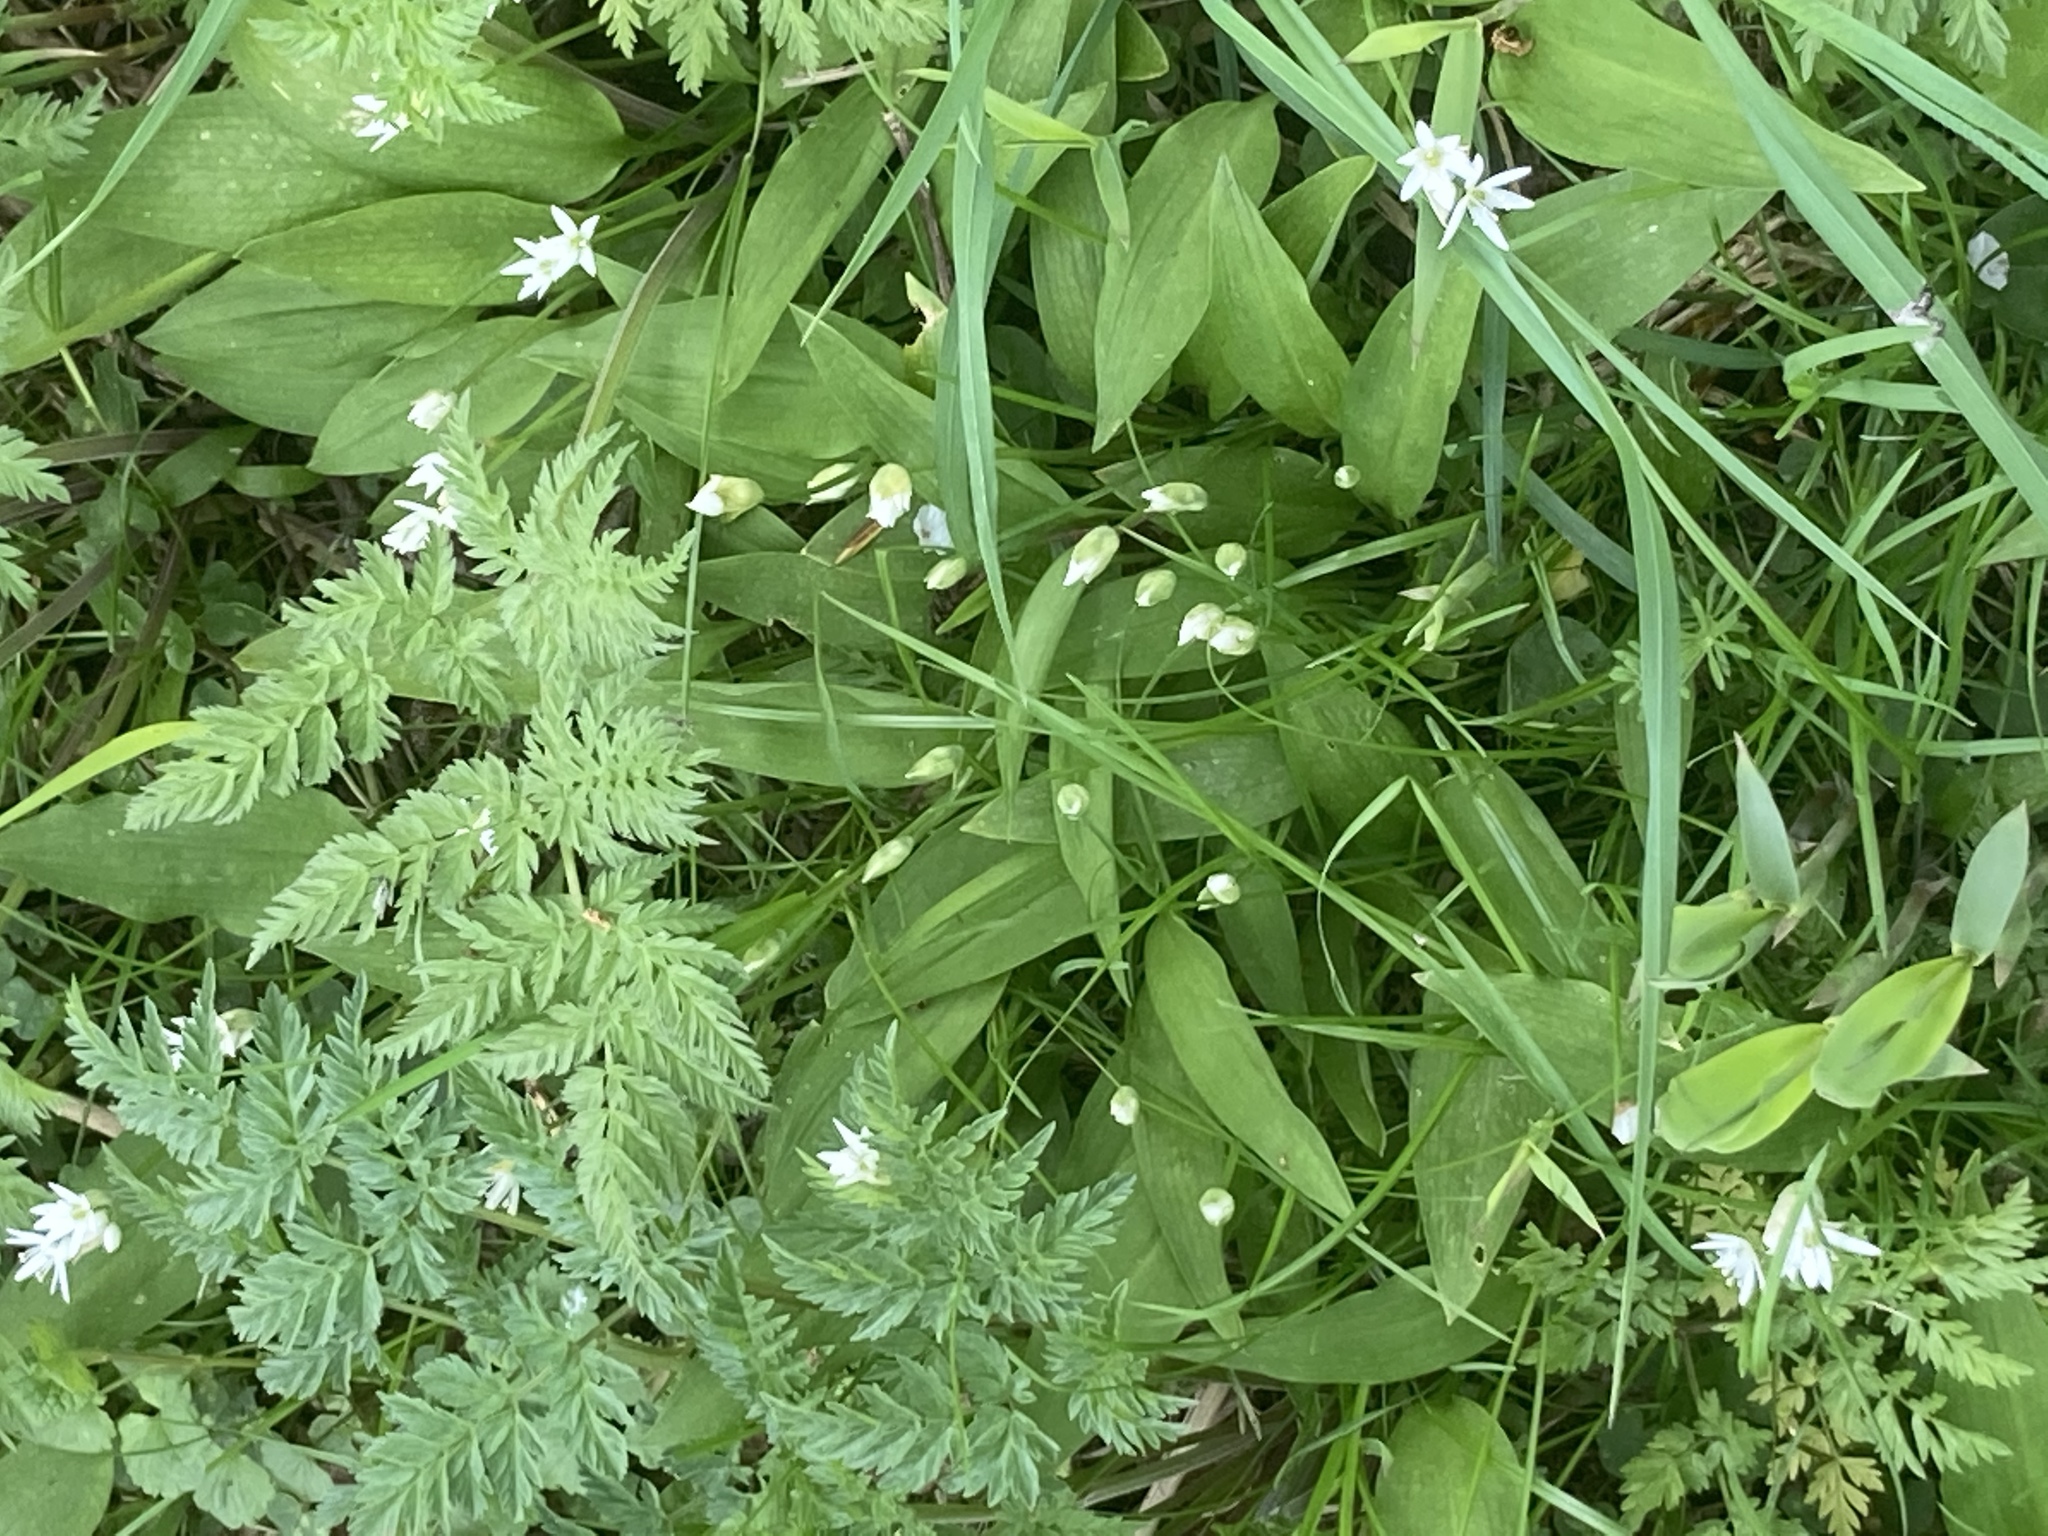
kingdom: Plantae
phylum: Tracheophyta
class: Liliopsida
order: Asparagales
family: Amaryllidaceae
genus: Allium
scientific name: Allium ursinum
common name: Ramsons
